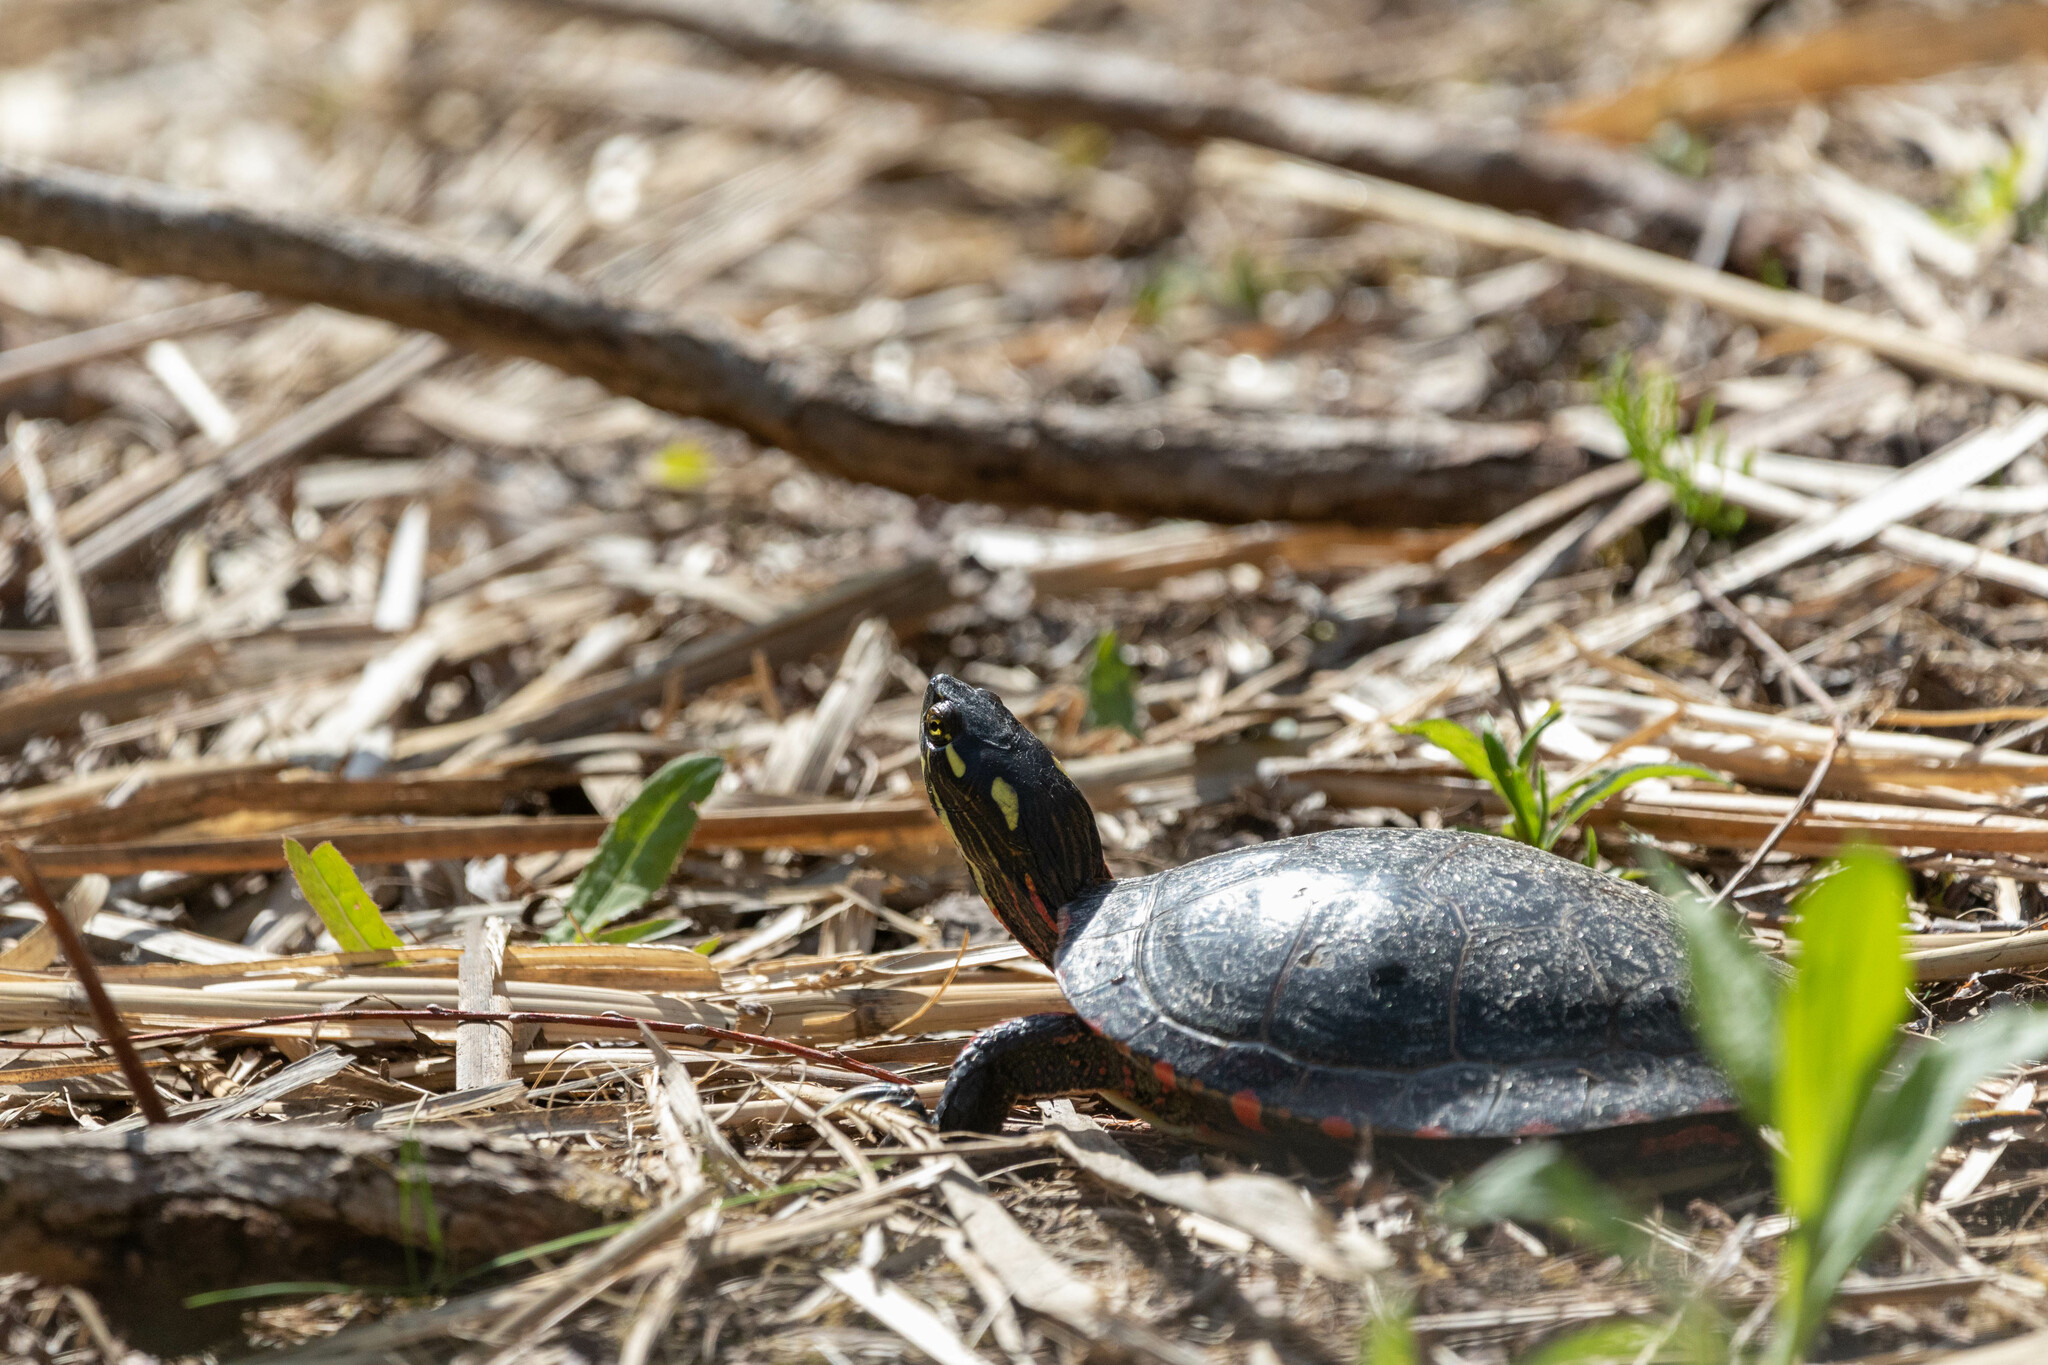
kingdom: Animalia
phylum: Chordata
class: Testudines
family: Emydidae
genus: Chrysemys
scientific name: Chrysemys picta
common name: Painted turtle
